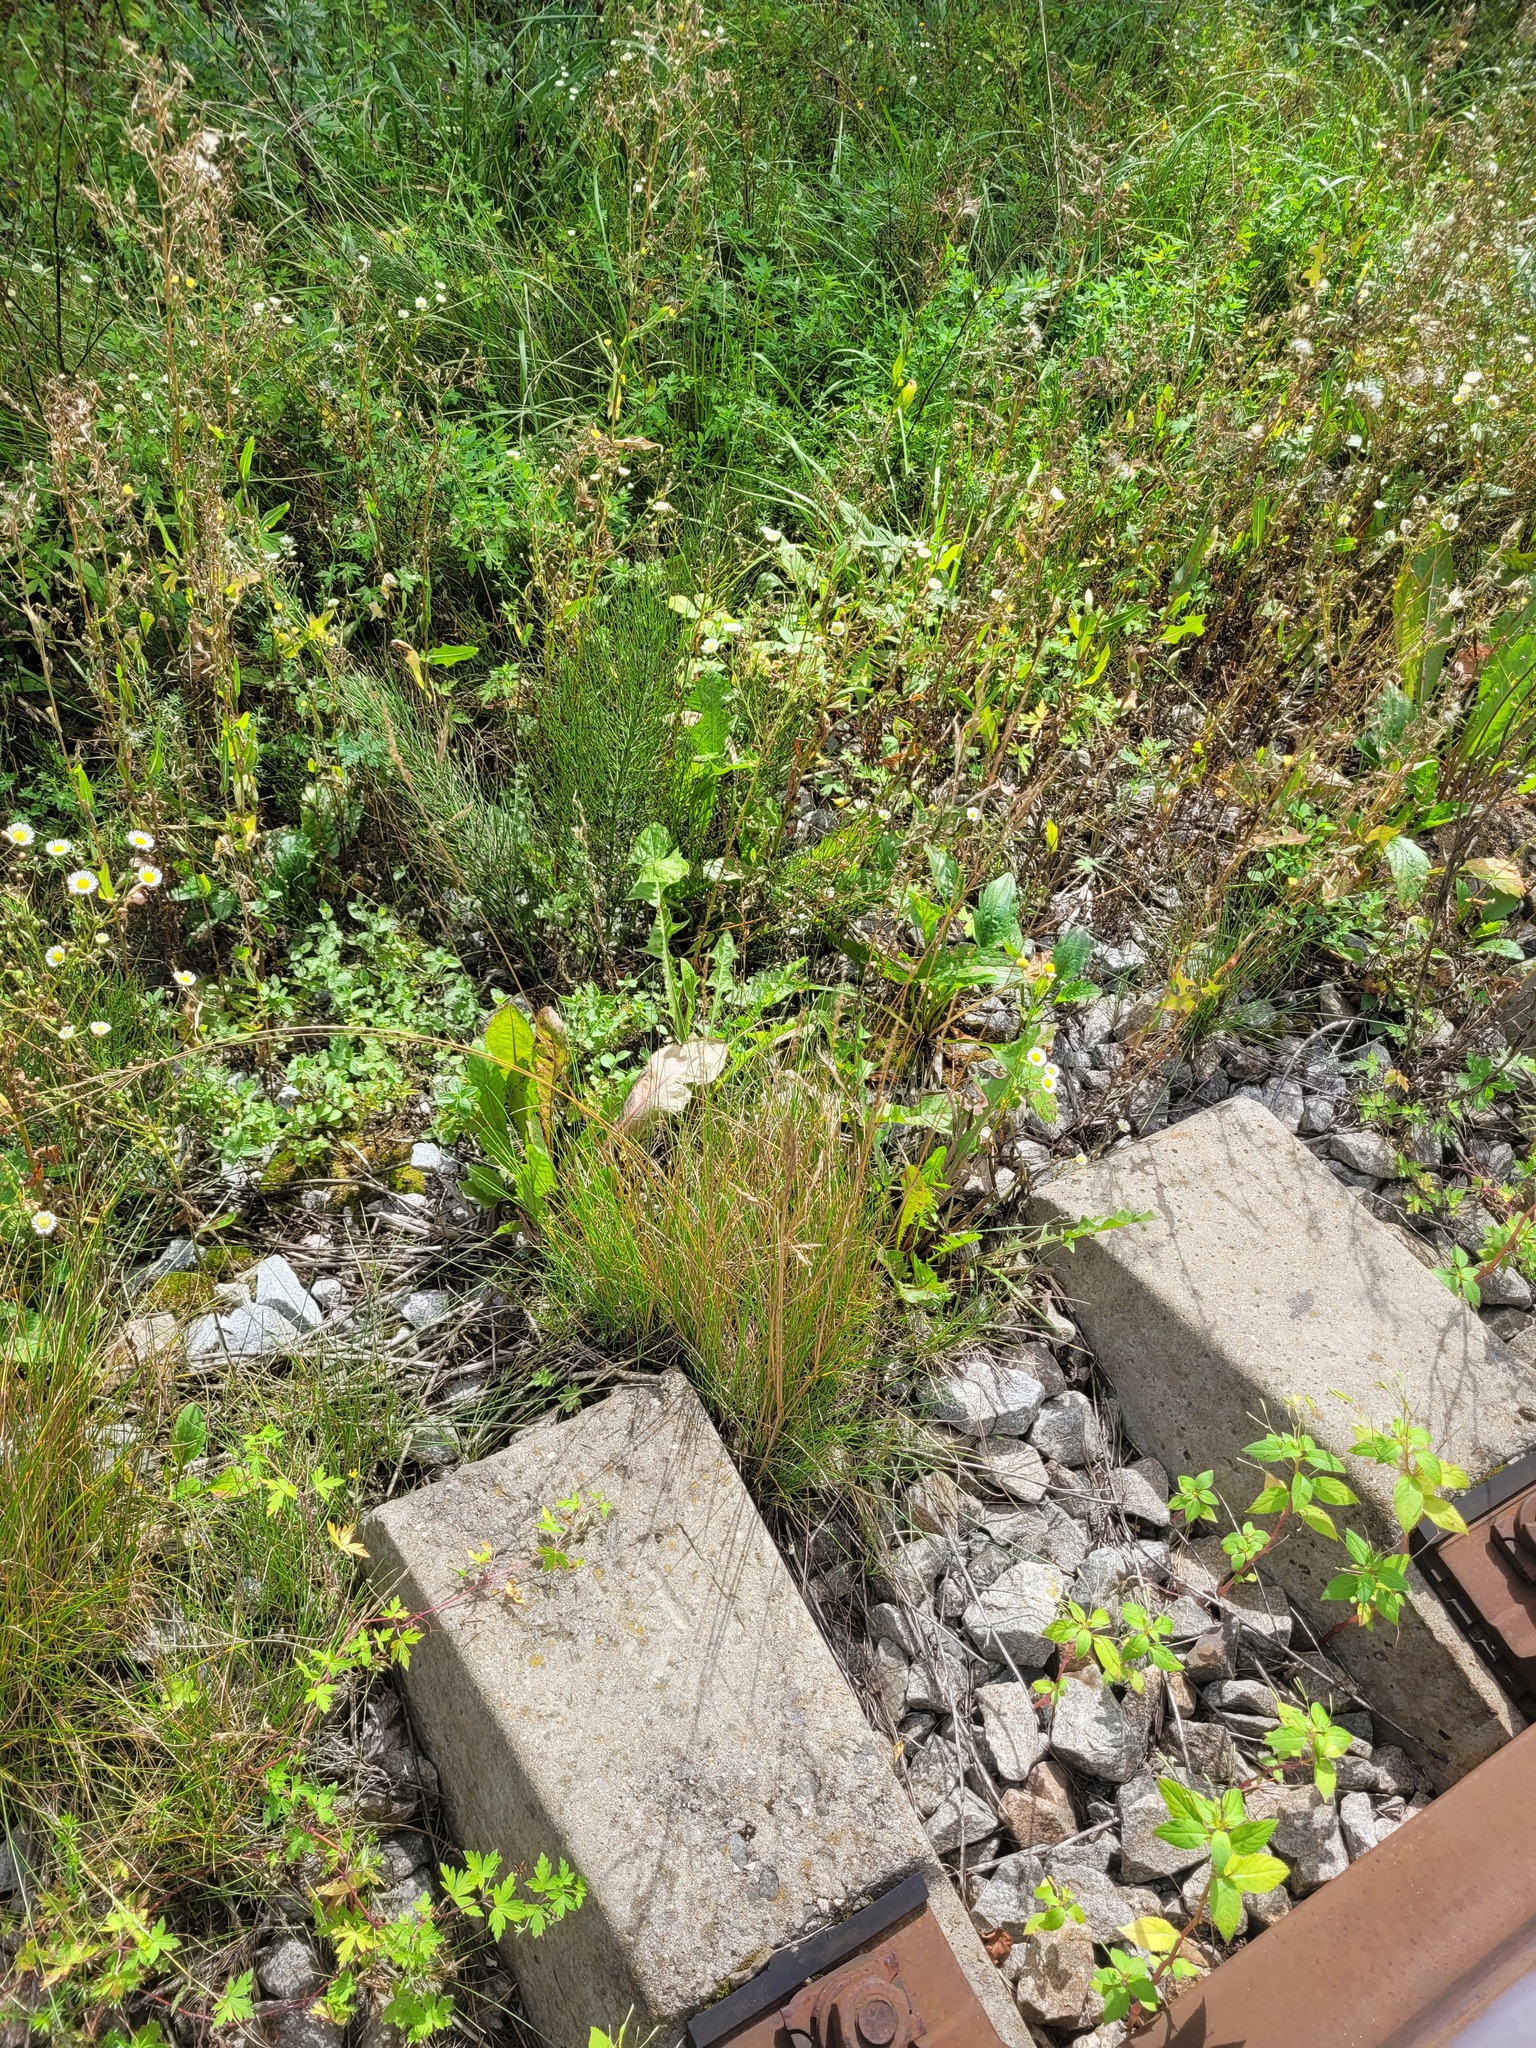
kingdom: Plantae
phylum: Tracheophyta
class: Liliopsida
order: Poales
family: Poaceae
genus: Festuca
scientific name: Festuca rubra
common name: Red fescue
